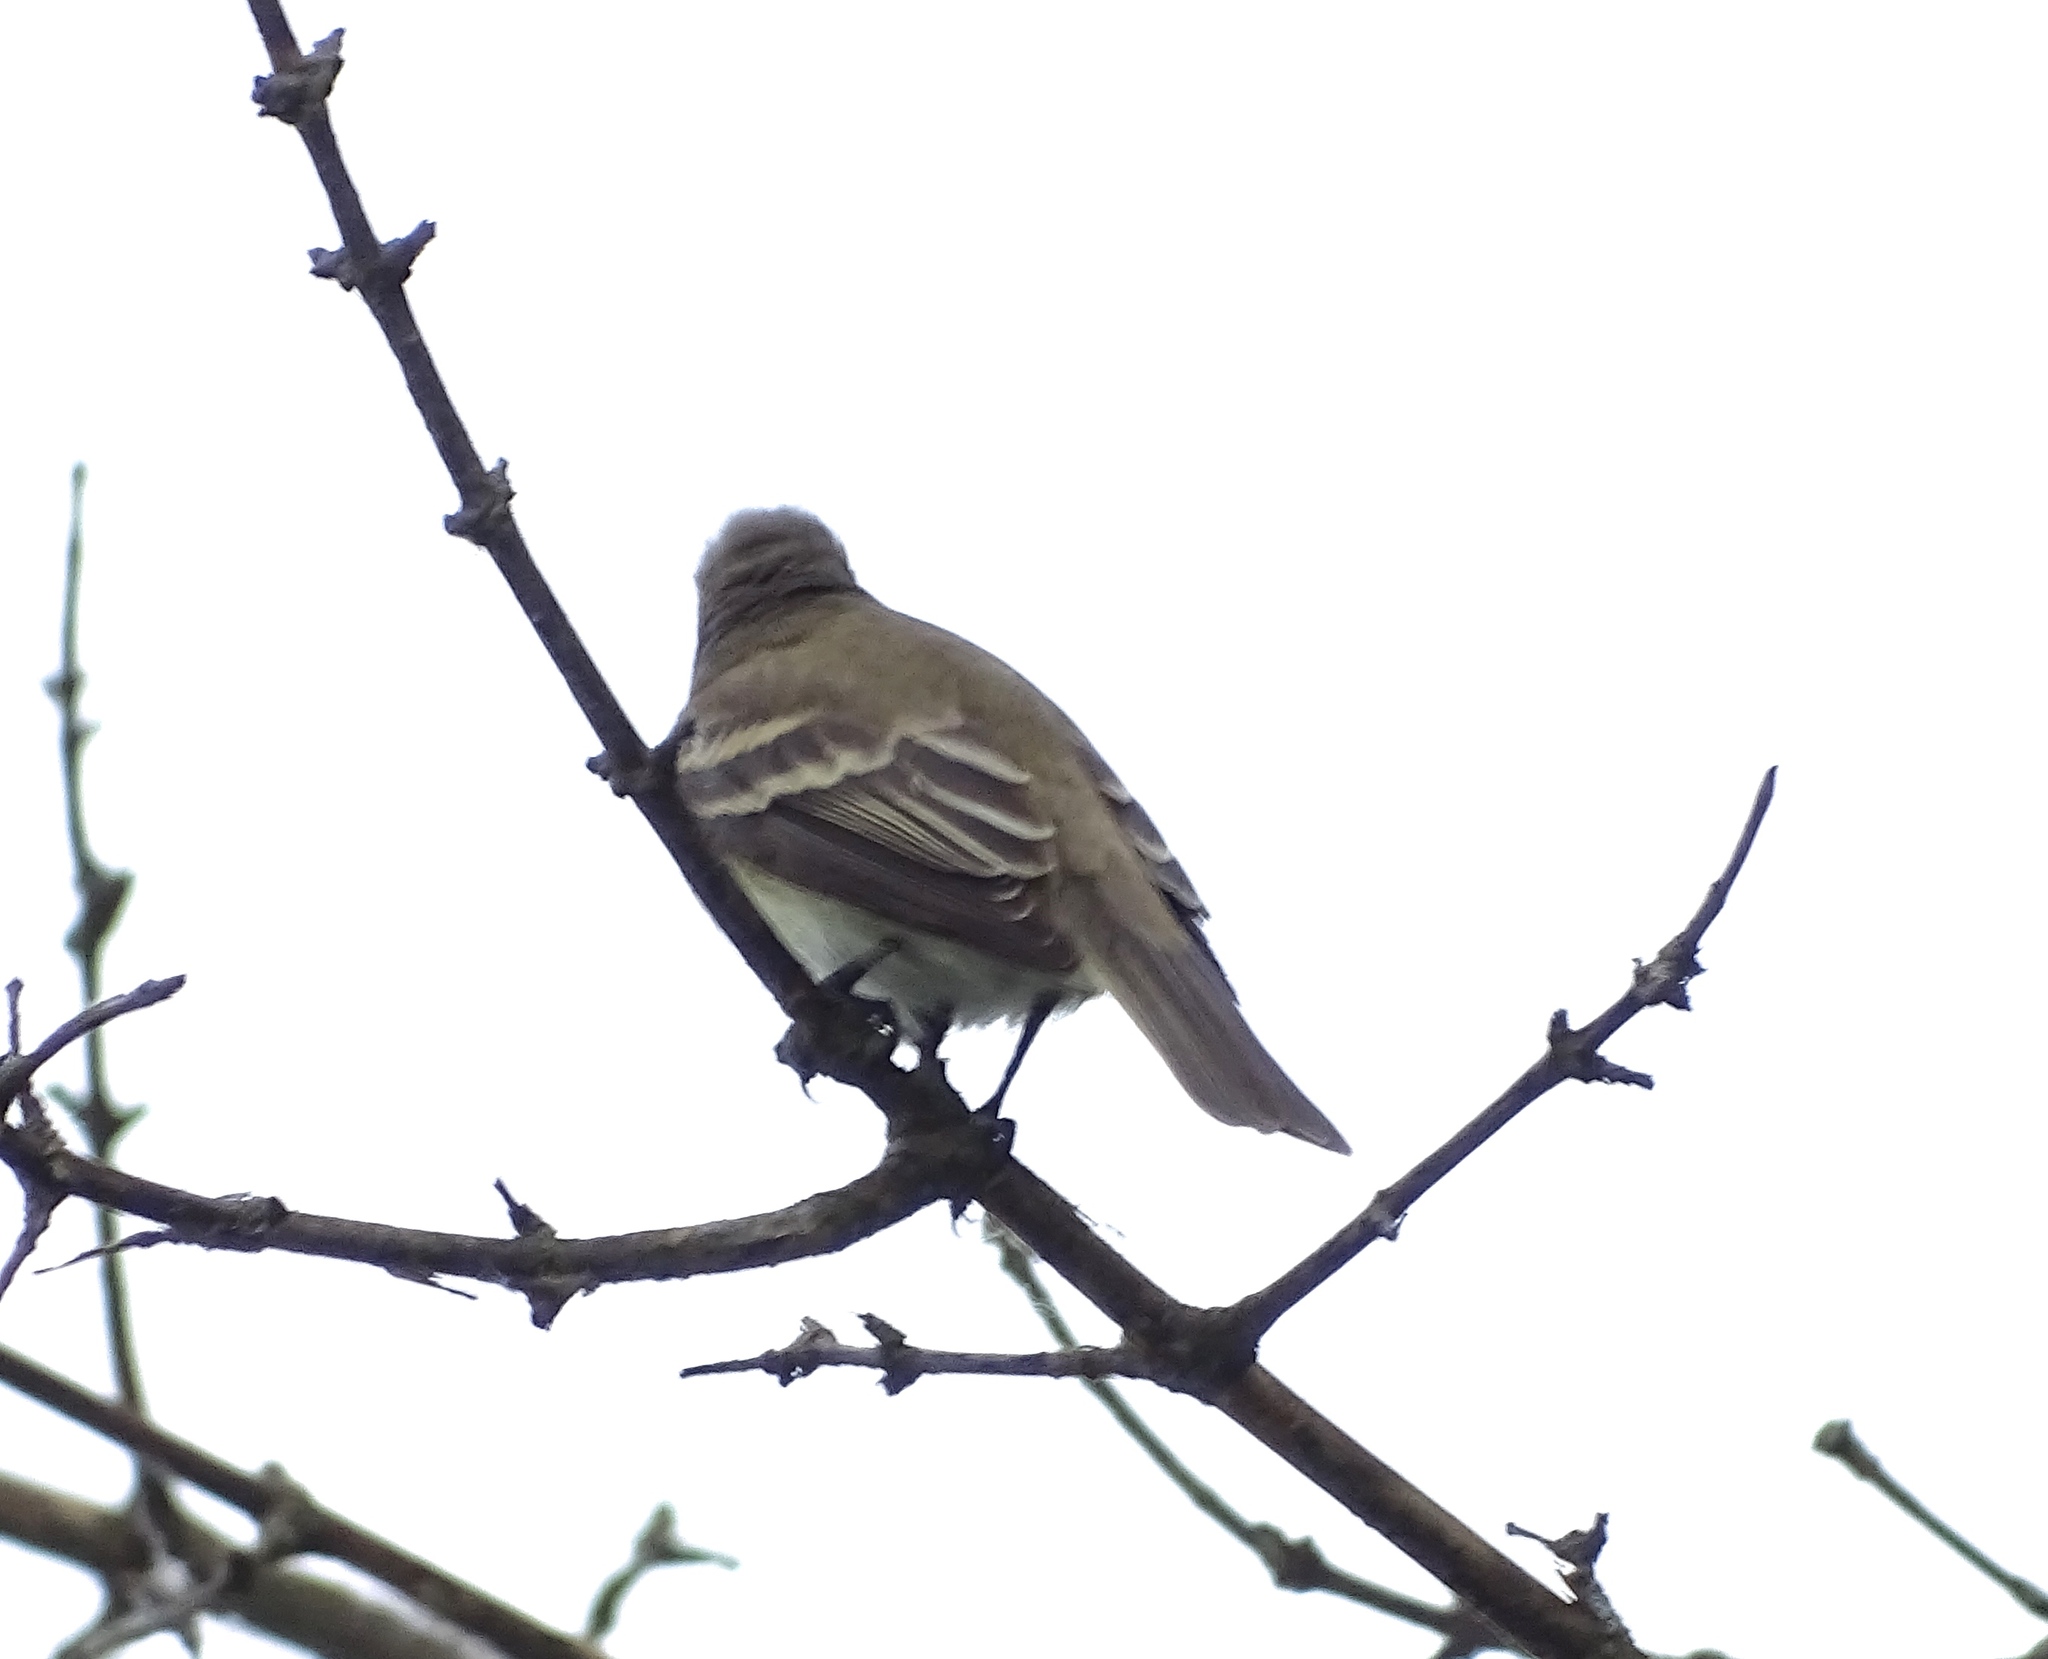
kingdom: Animalia
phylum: Chordata
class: Aves
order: Passeriformes
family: Tyrannidae
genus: Empidonax
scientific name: Empidonax traillii
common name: Willow flycatcher
